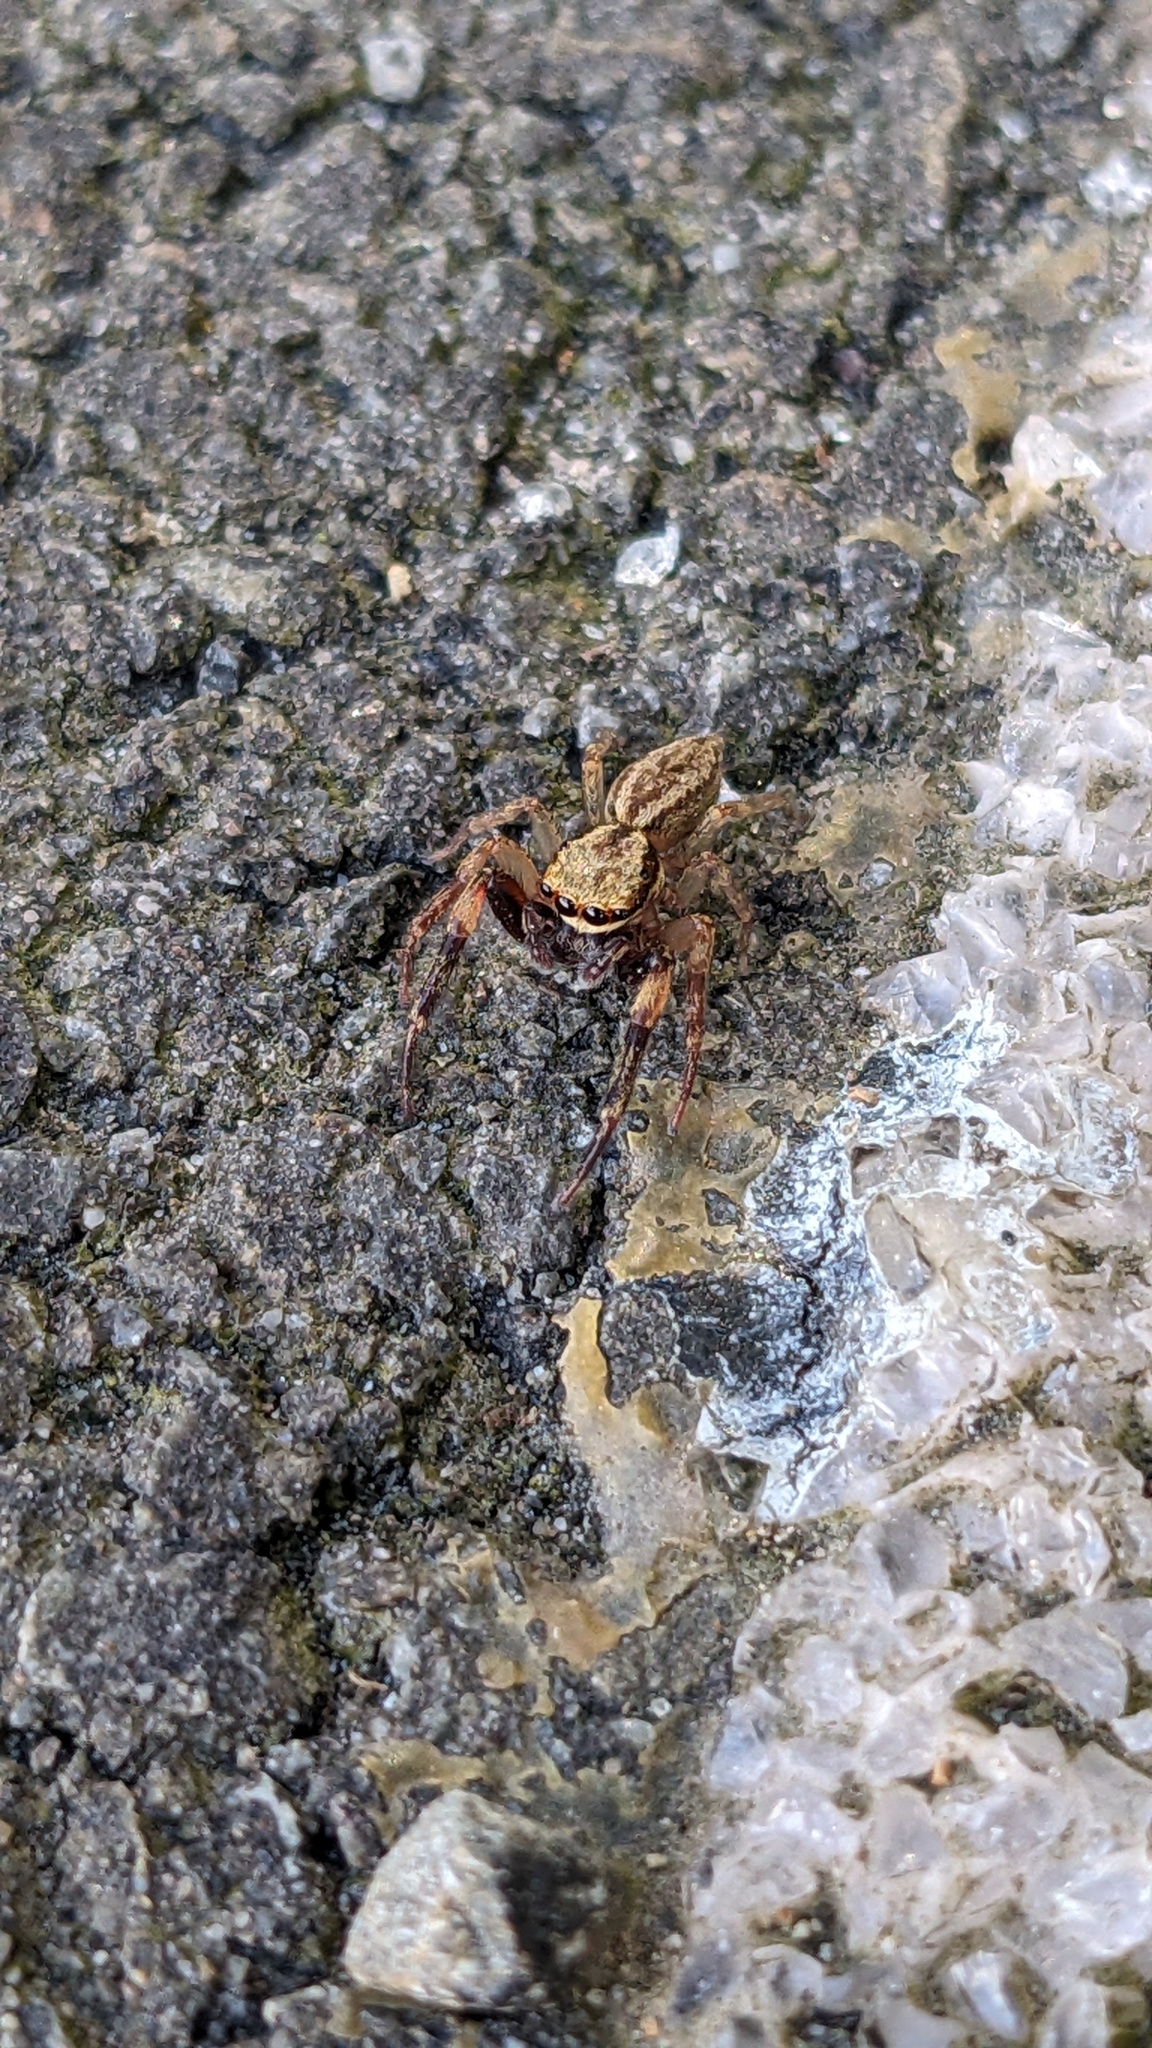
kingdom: Animalia
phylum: Arthropoda
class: Arachnida
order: Araneae
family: Salticidae
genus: Trite
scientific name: Trite auricoma
